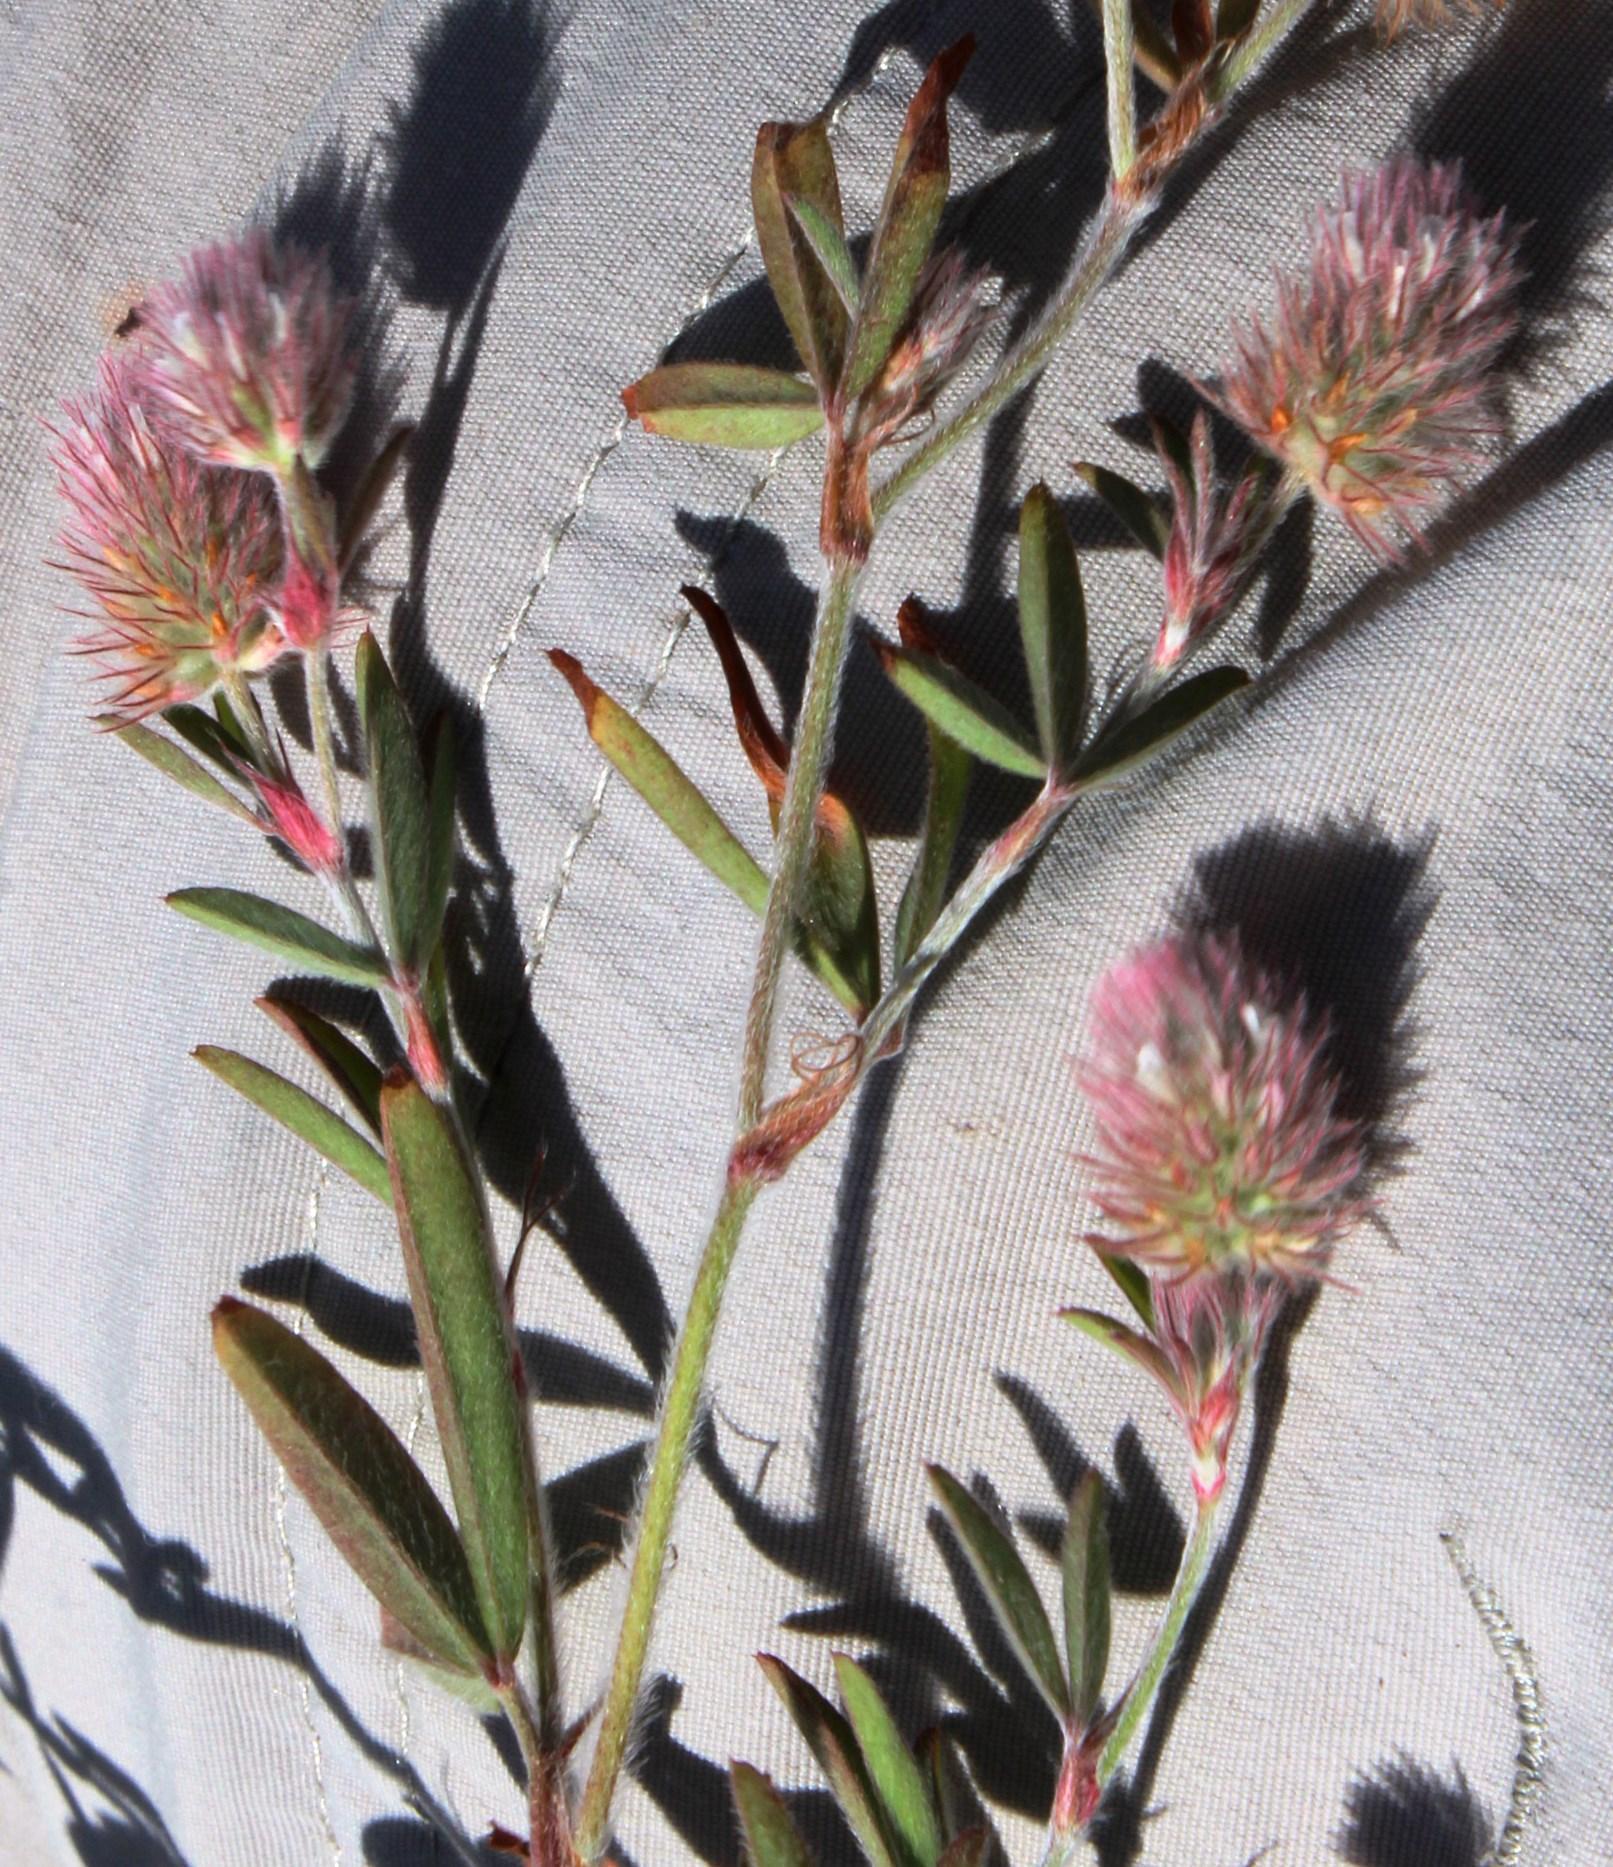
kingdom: Plantae
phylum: Tracheophyta
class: Magnoliopsida
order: Fabales
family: Fabaceae
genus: Trifolium
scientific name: Trifolium arvense
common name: Hare's-foot clover
